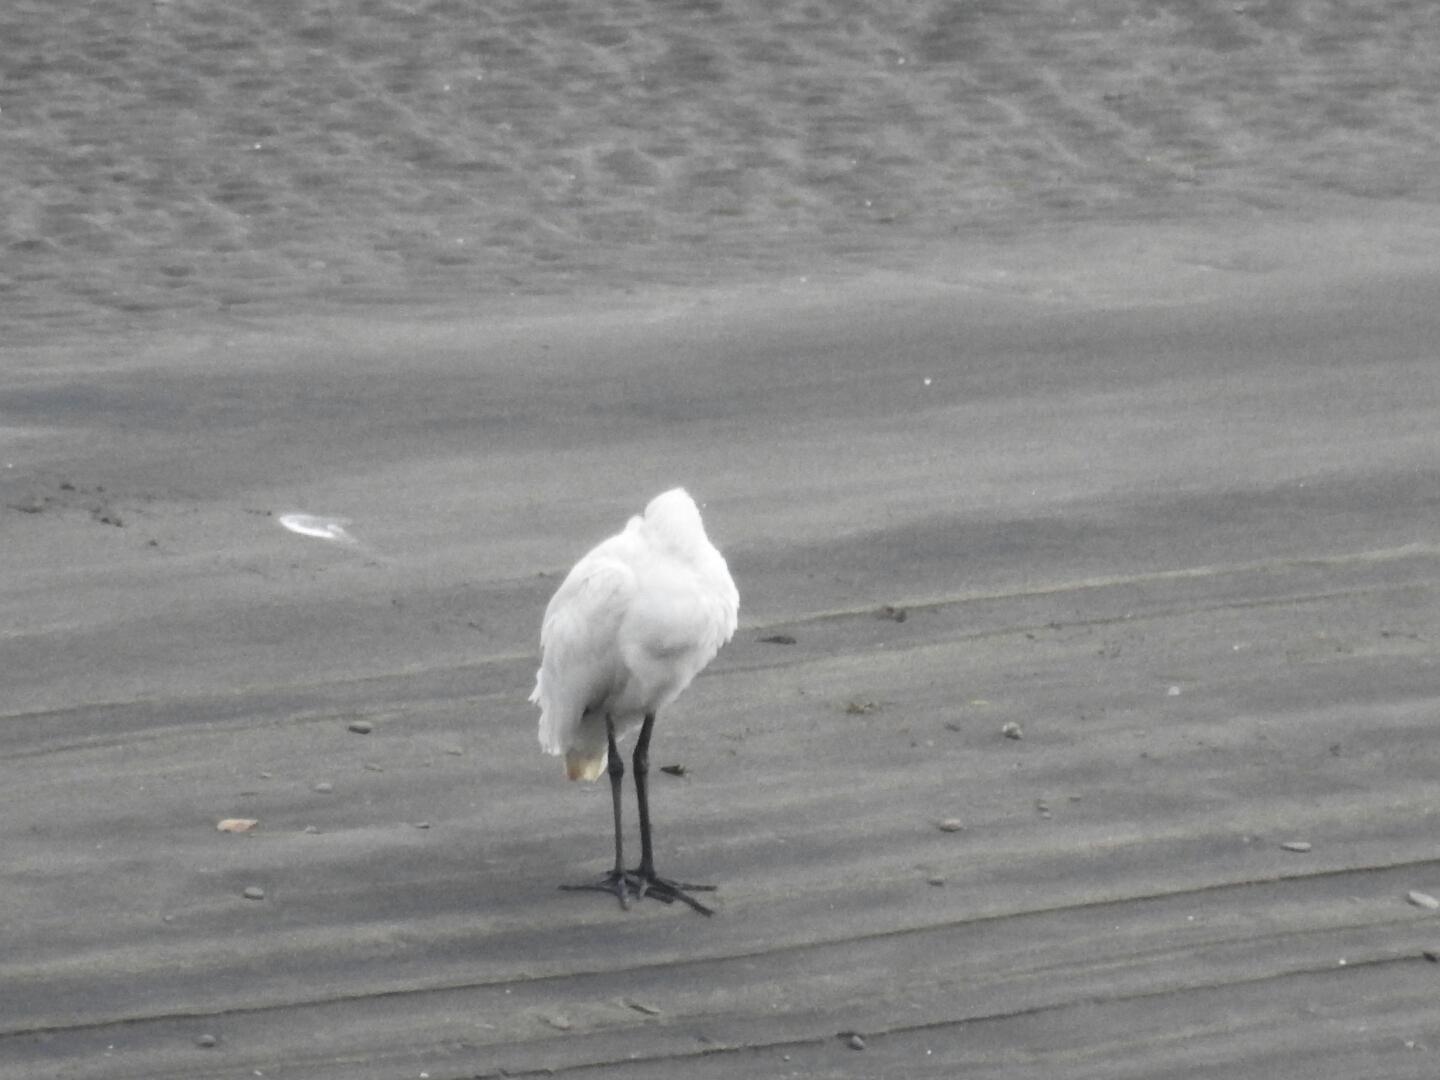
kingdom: Animalia
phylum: Chordata
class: Aves
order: Pelecaniformes
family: Threskiornithidae
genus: Platalea
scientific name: Platalea regia
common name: Royal spoonbill
